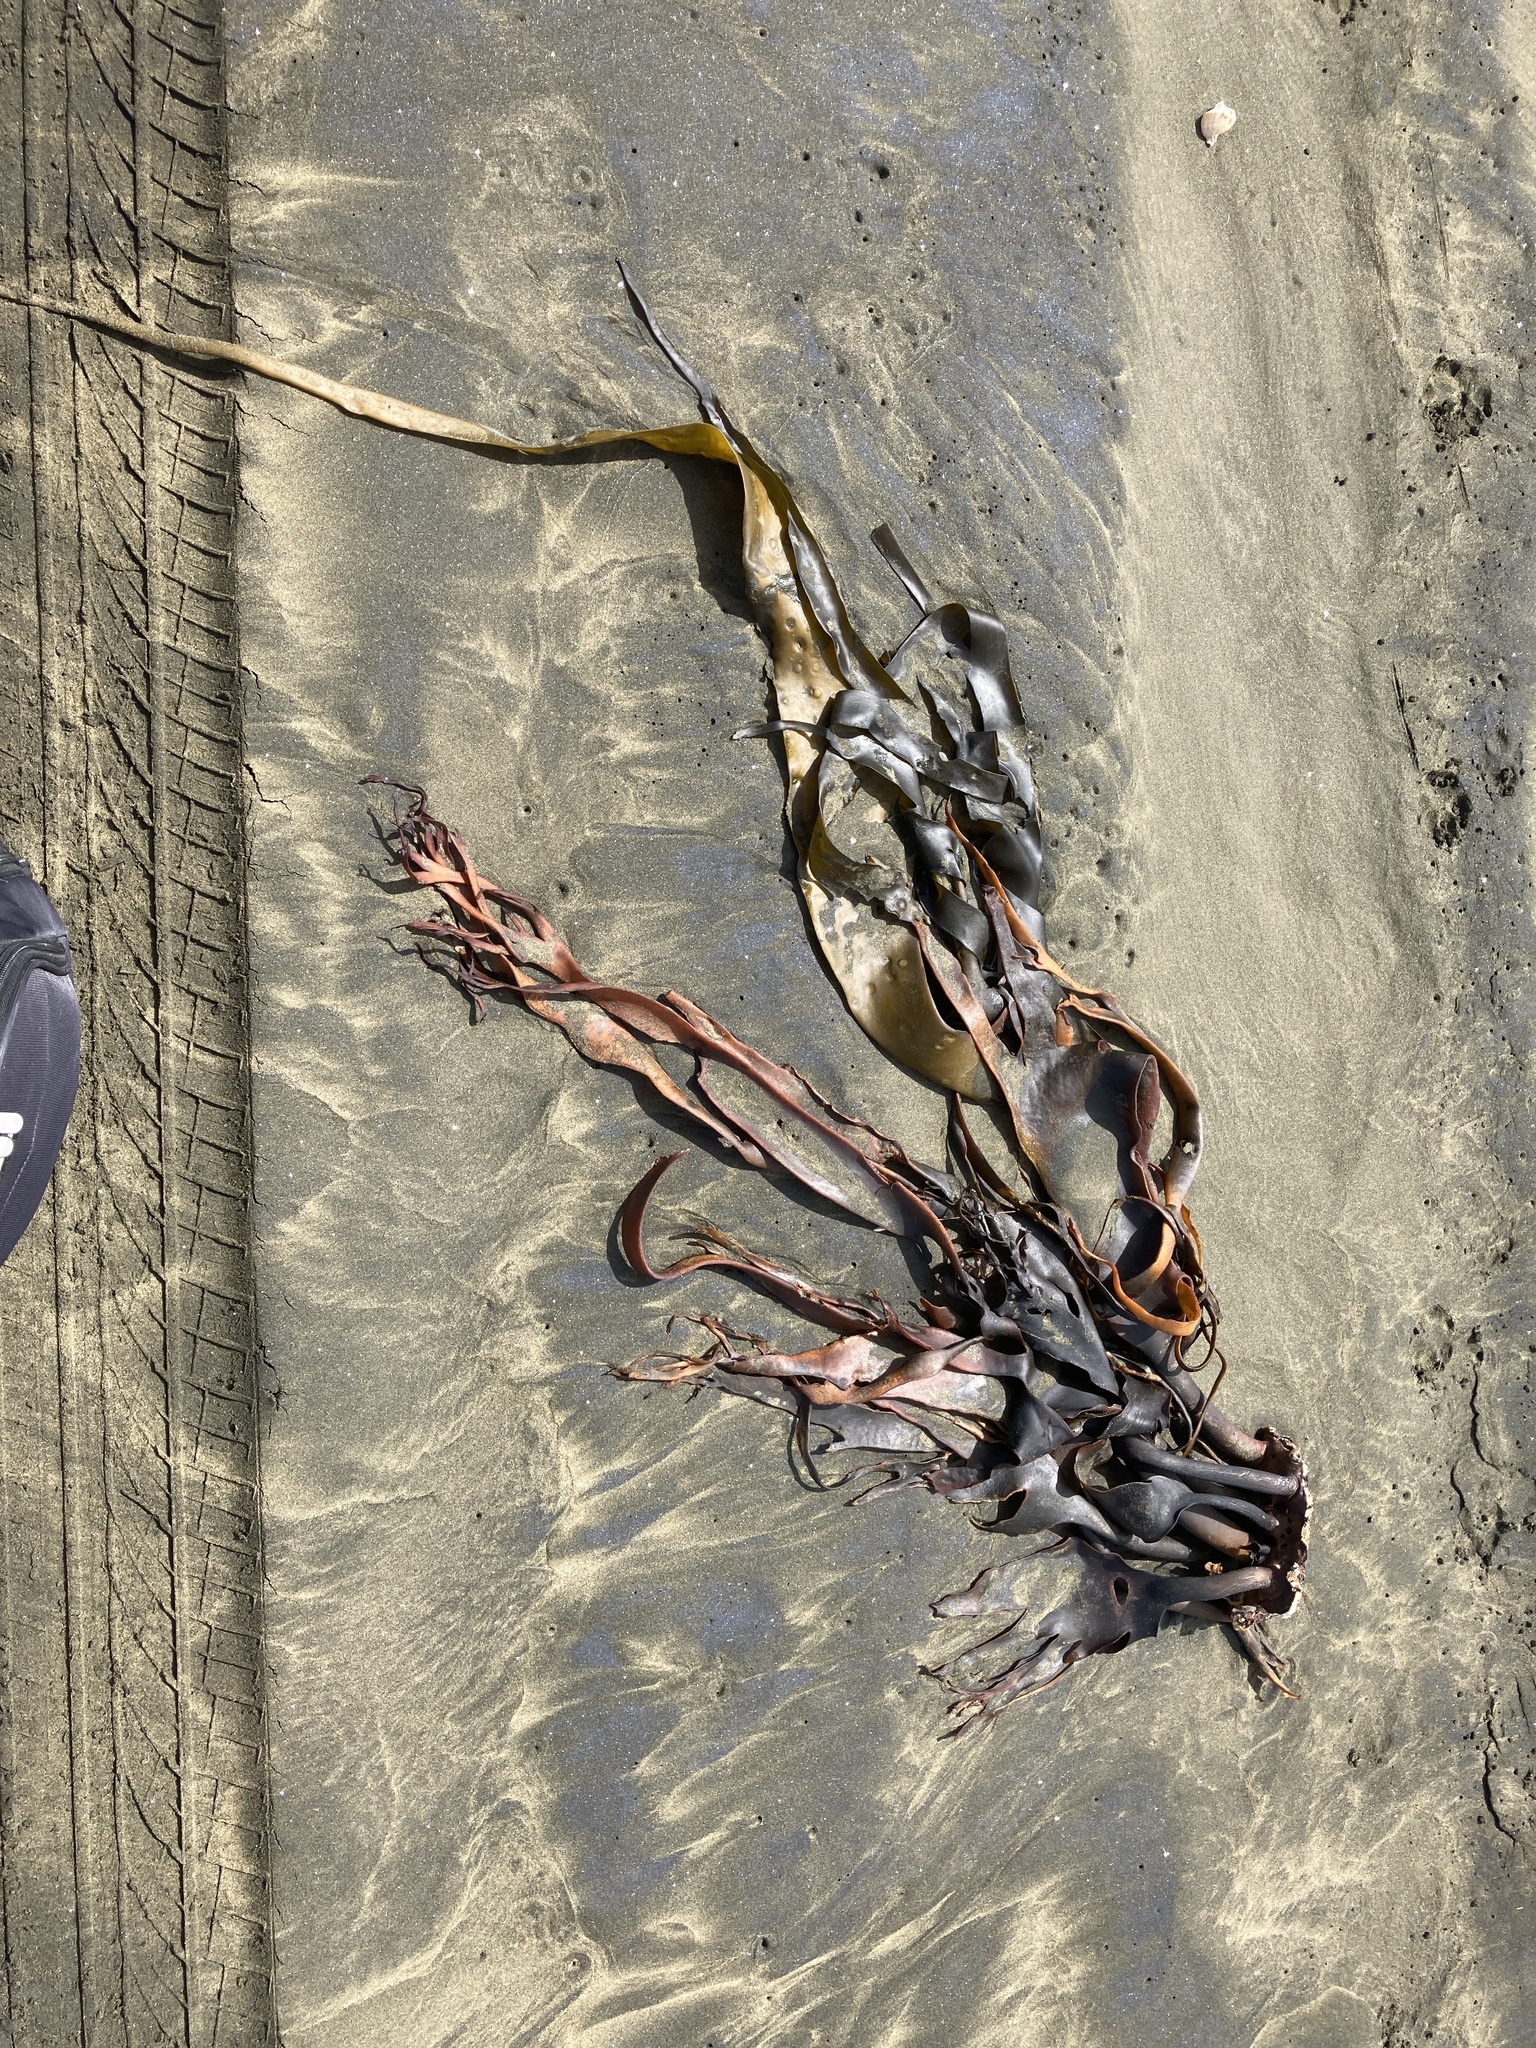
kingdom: Chromista
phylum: Ochrophyta
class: Phaeophyceae
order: Fucales
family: Durvillaeaceae
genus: Durvillaea
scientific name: Durvillaea antarctica
